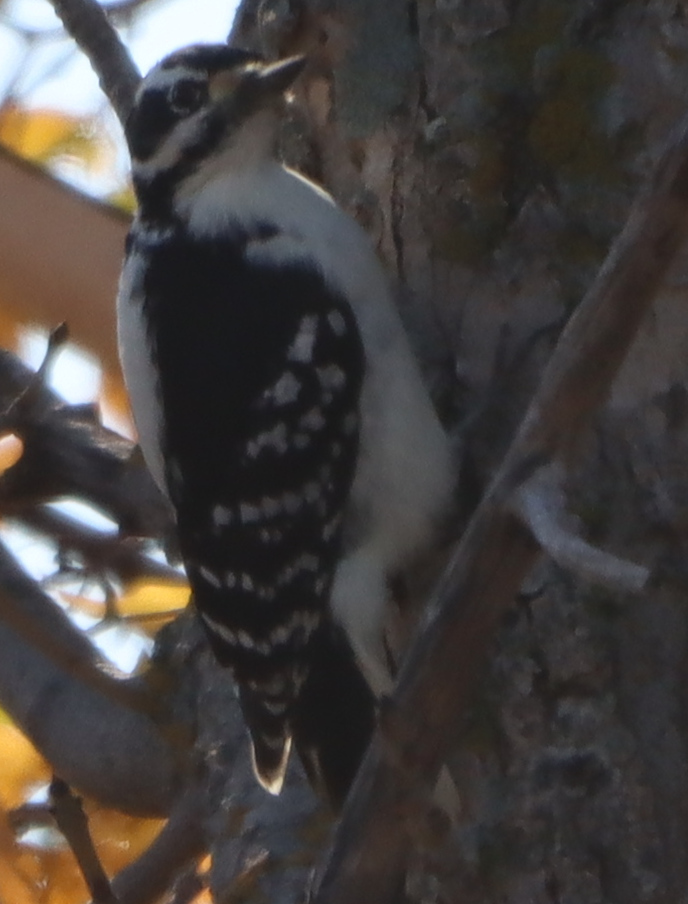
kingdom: Animalia
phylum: Chordata
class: Aves
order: Piciformes
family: Picidae
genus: Dryobates
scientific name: Dryobates pubescens
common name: Downy woodpecker
